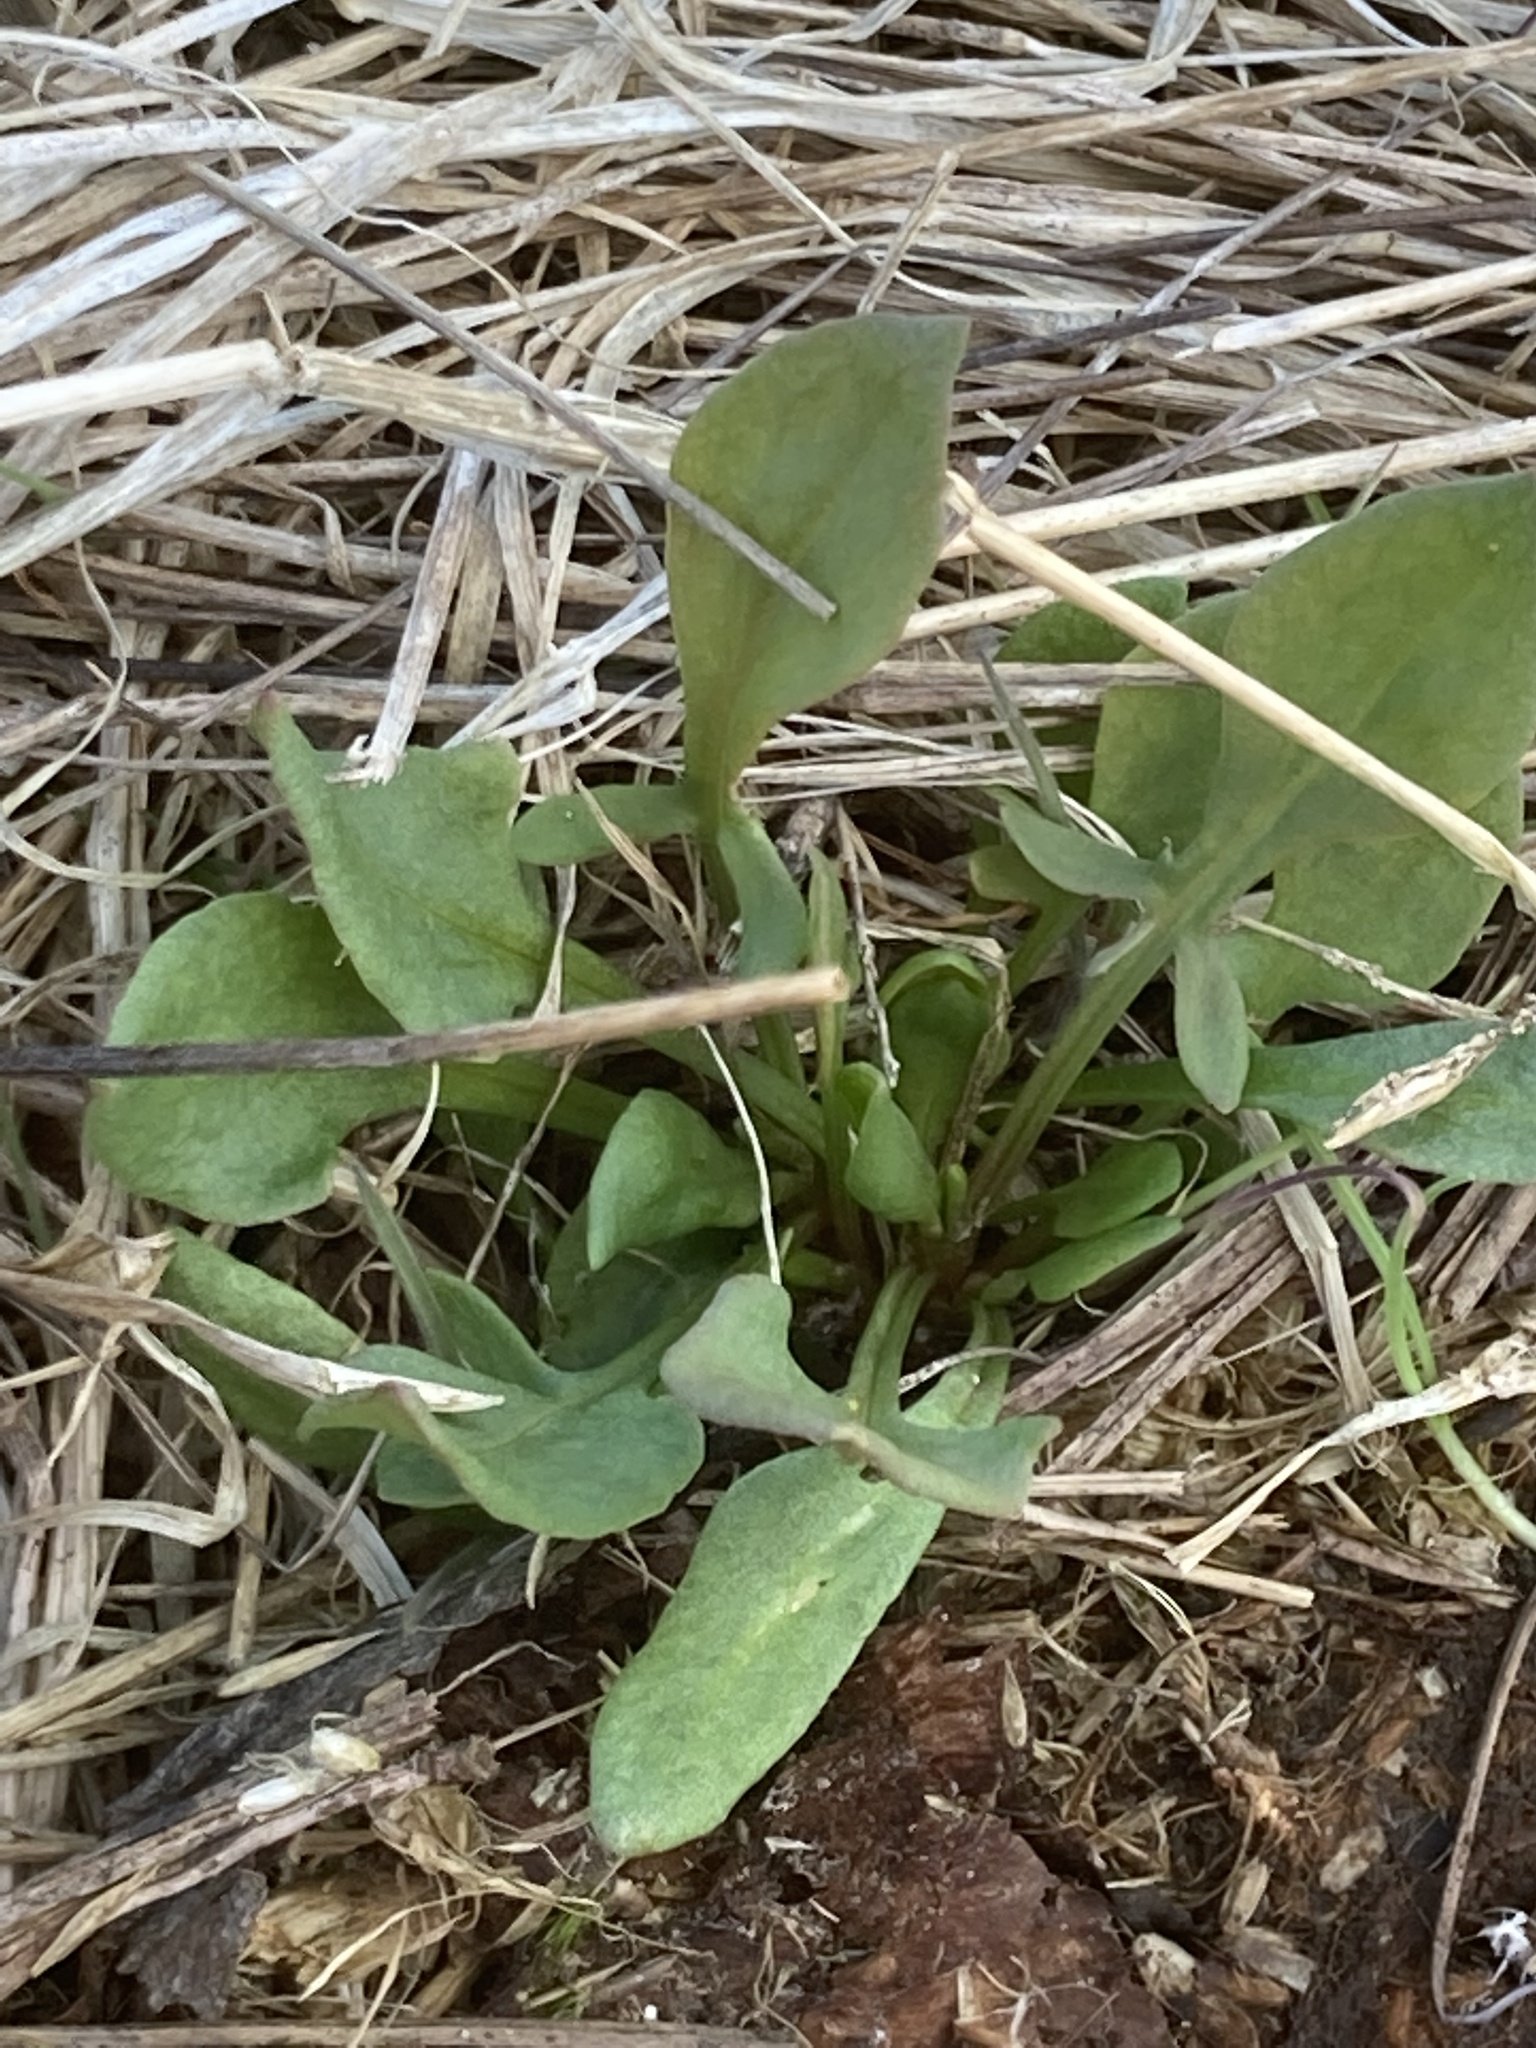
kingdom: Plantae
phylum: Tracheophyta
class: Magnoliopsida
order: Caryophyllales
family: Polygonaceae
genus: Rumex
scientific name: Rumex acetosella
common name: Common sheep sorrel
